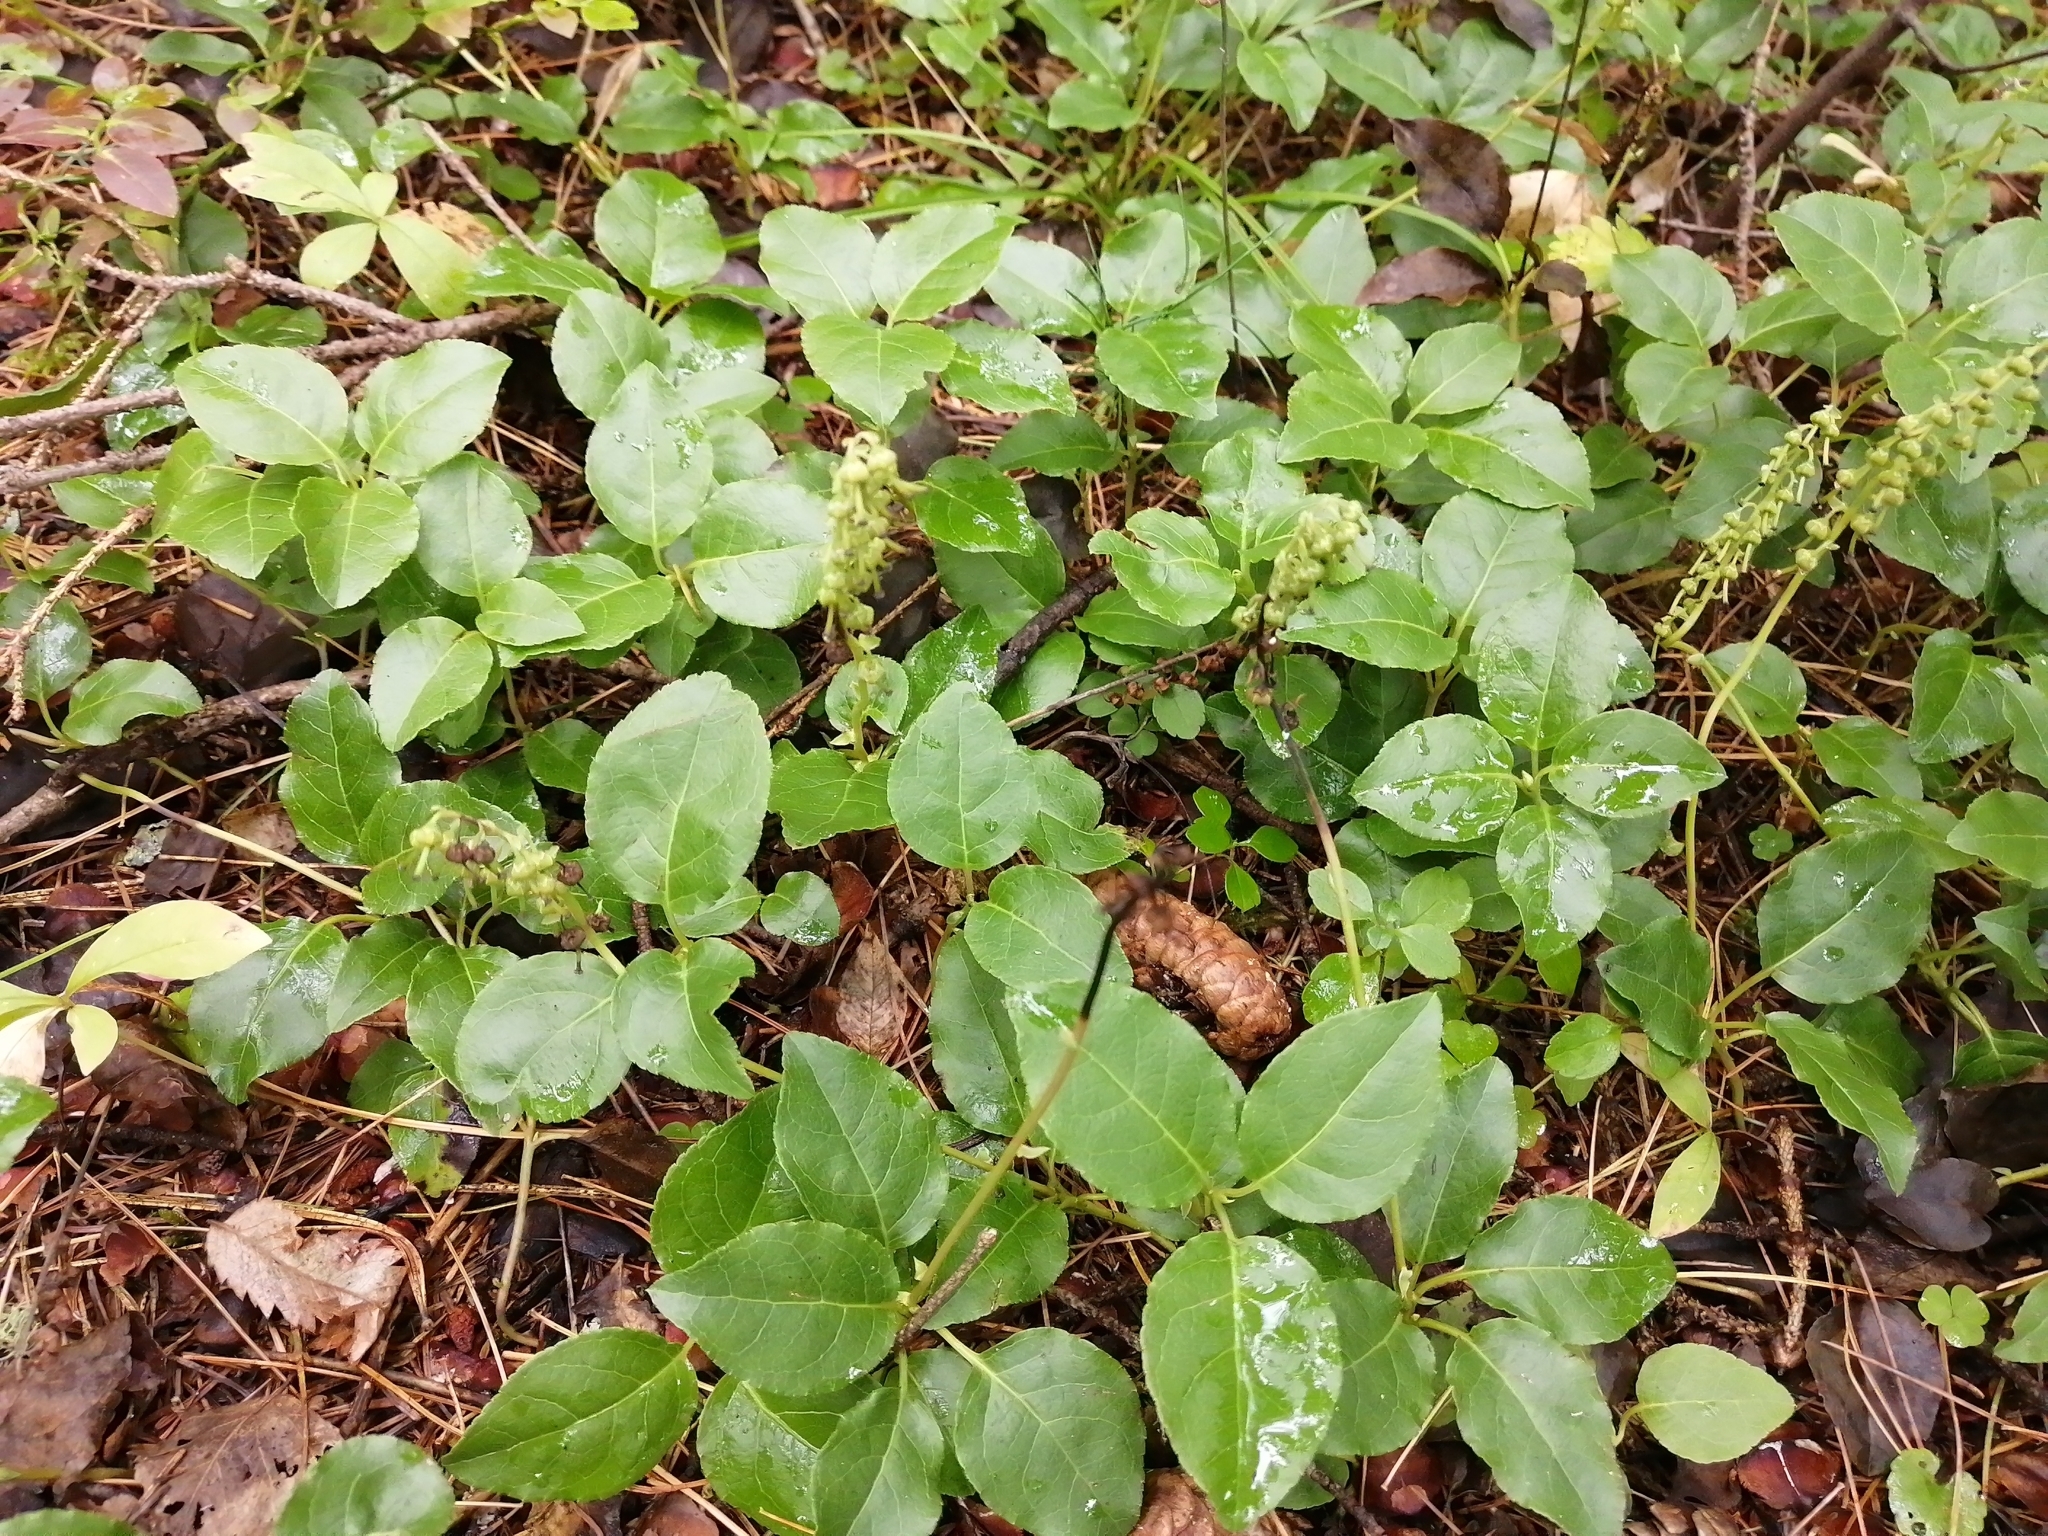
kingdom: Plantae
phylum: Tracheophyta
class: Magnoliopsida
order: Ericales
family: Ericaceae
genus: Orthilia
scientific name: Orthilia secunda
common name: One-sided orthilia
